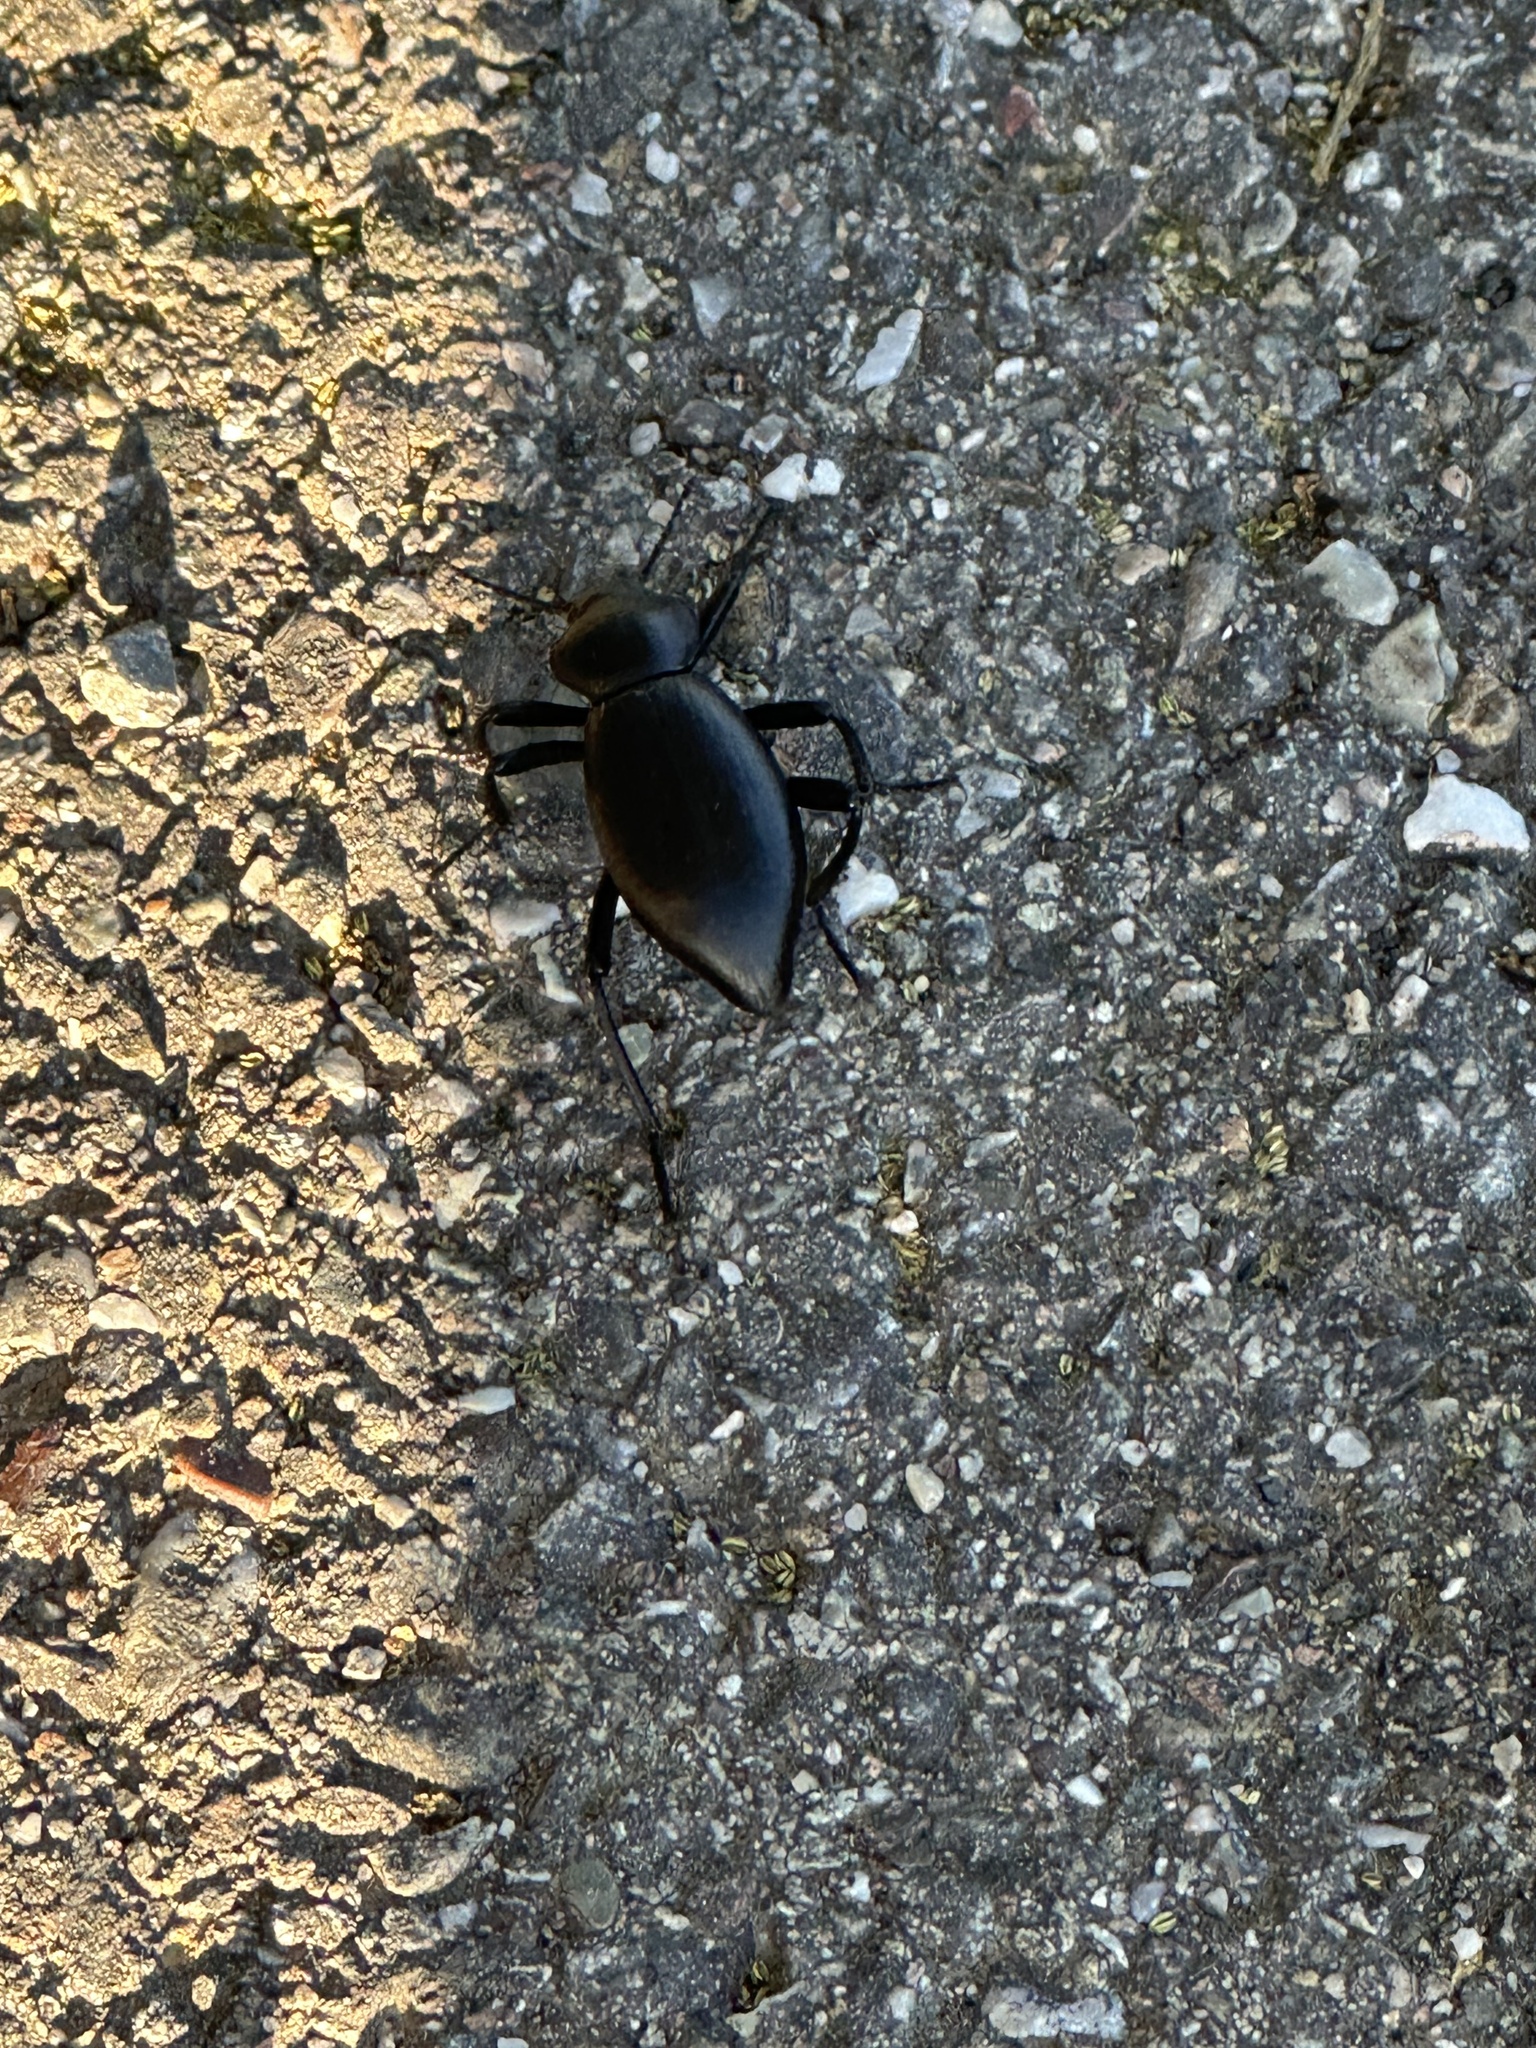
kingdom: Animalia
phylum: Arthropoda
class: Insecta
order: Coleoptera
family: Tenebrionidae
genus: Eleodes
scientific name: Eleodes acuticauda
